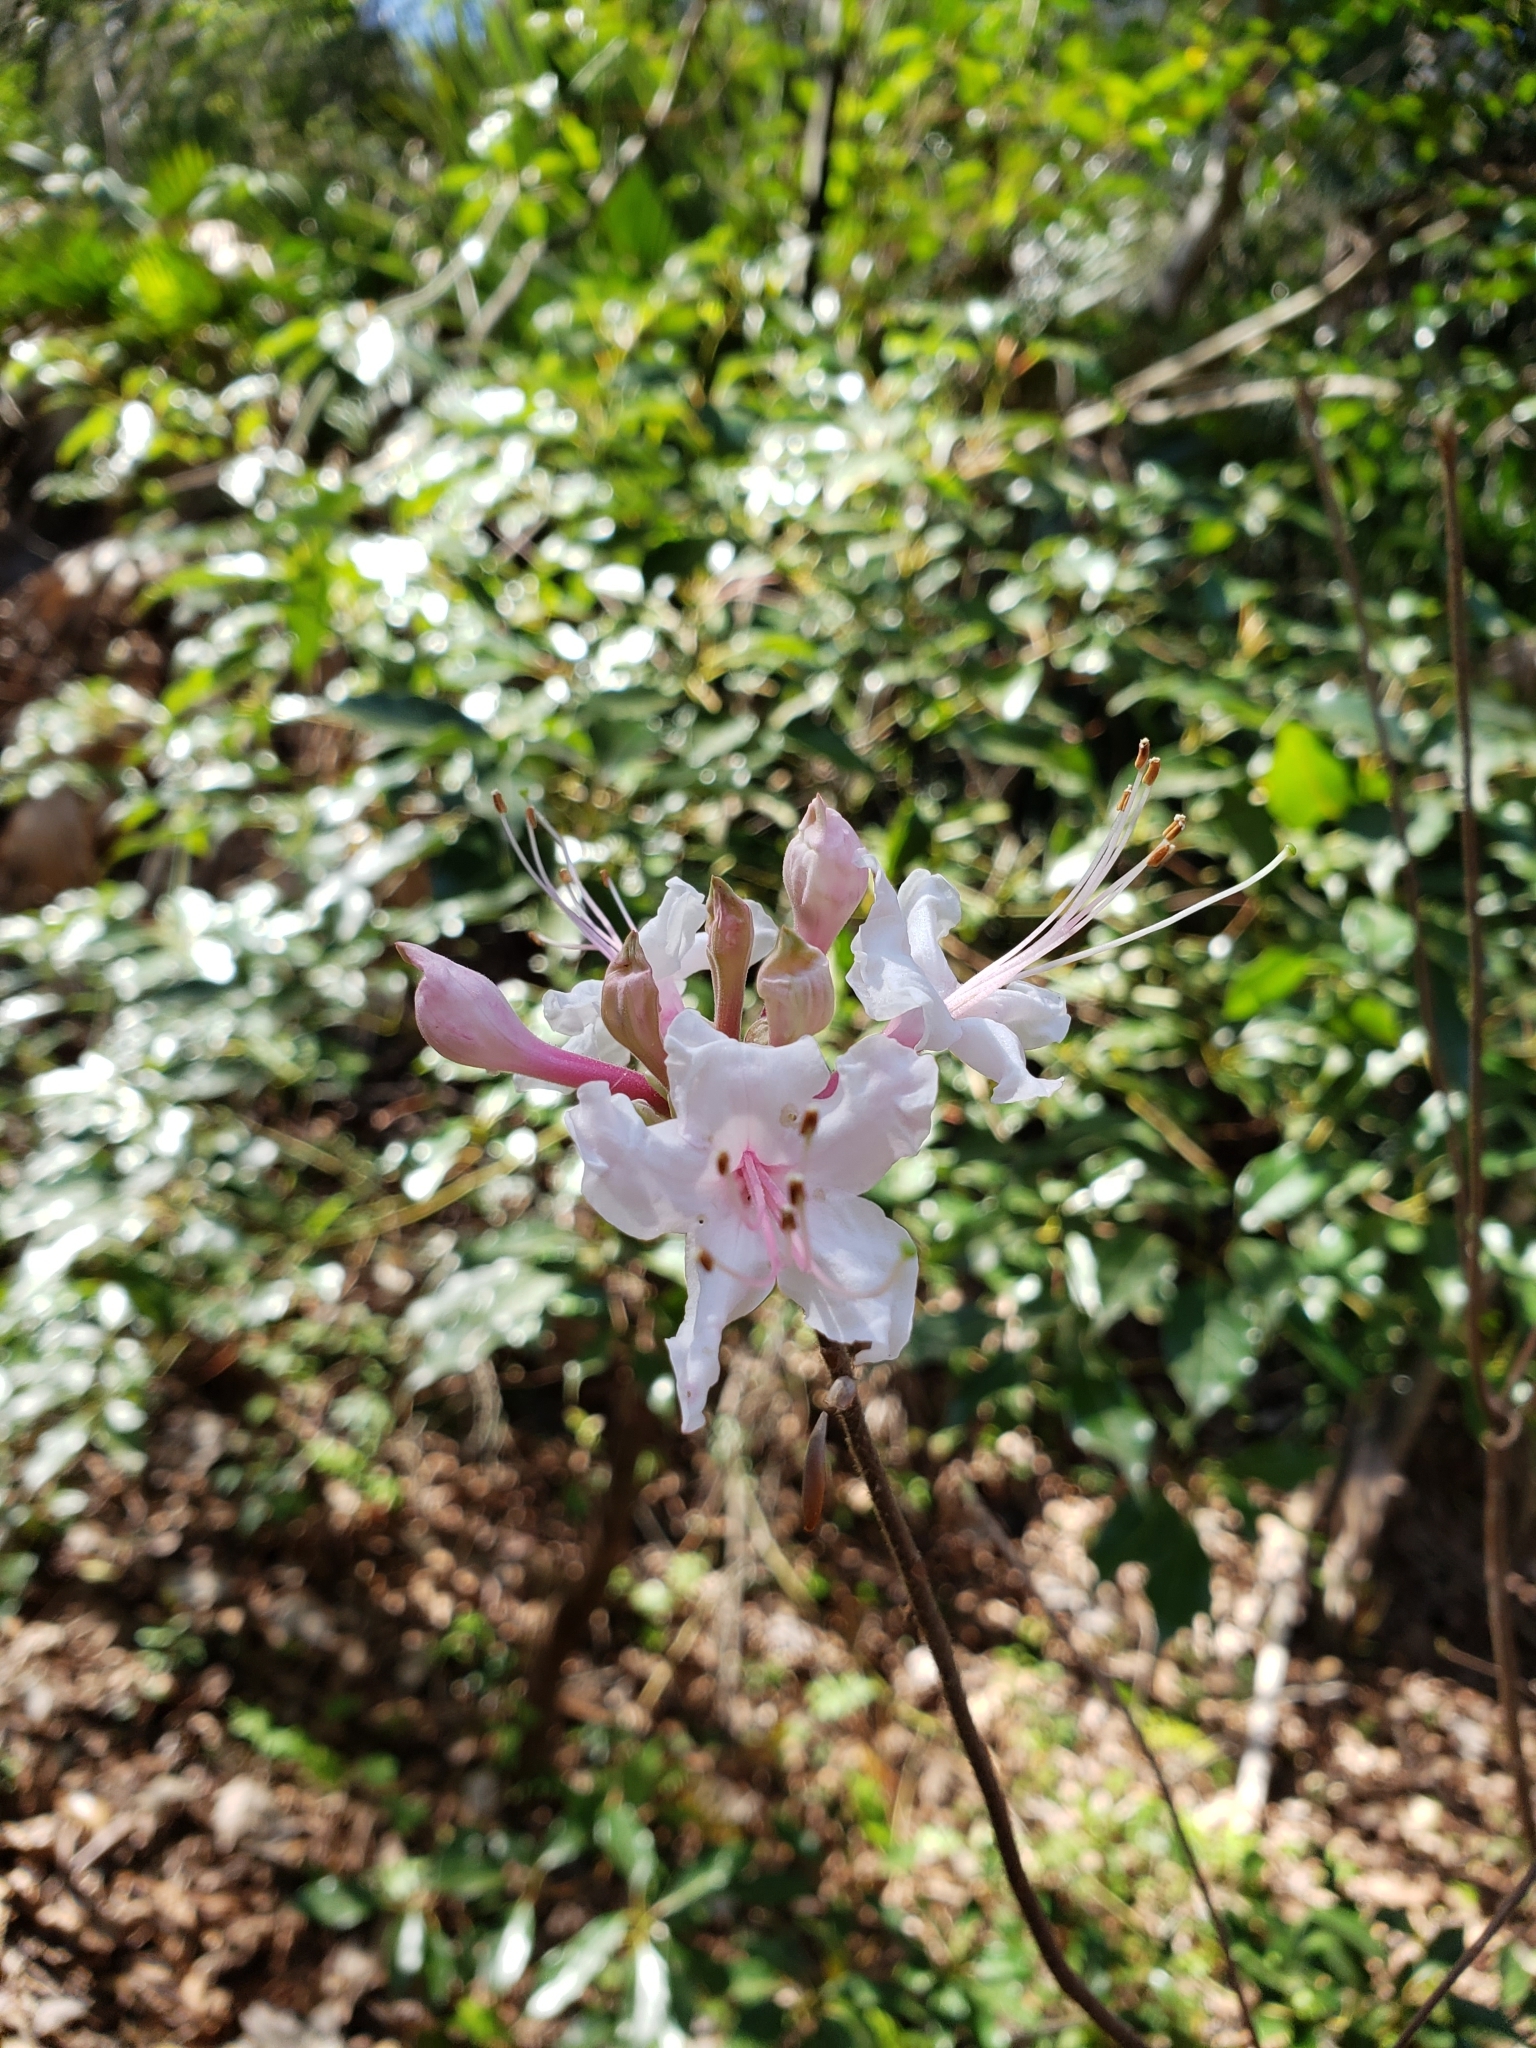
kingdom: Plantae
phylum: Tracheophyta
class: Magnoliopsida
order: Ericales
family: Ericaceae
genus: Rhododendron
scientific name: Rhododendron canescens
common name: Mountain azalea
